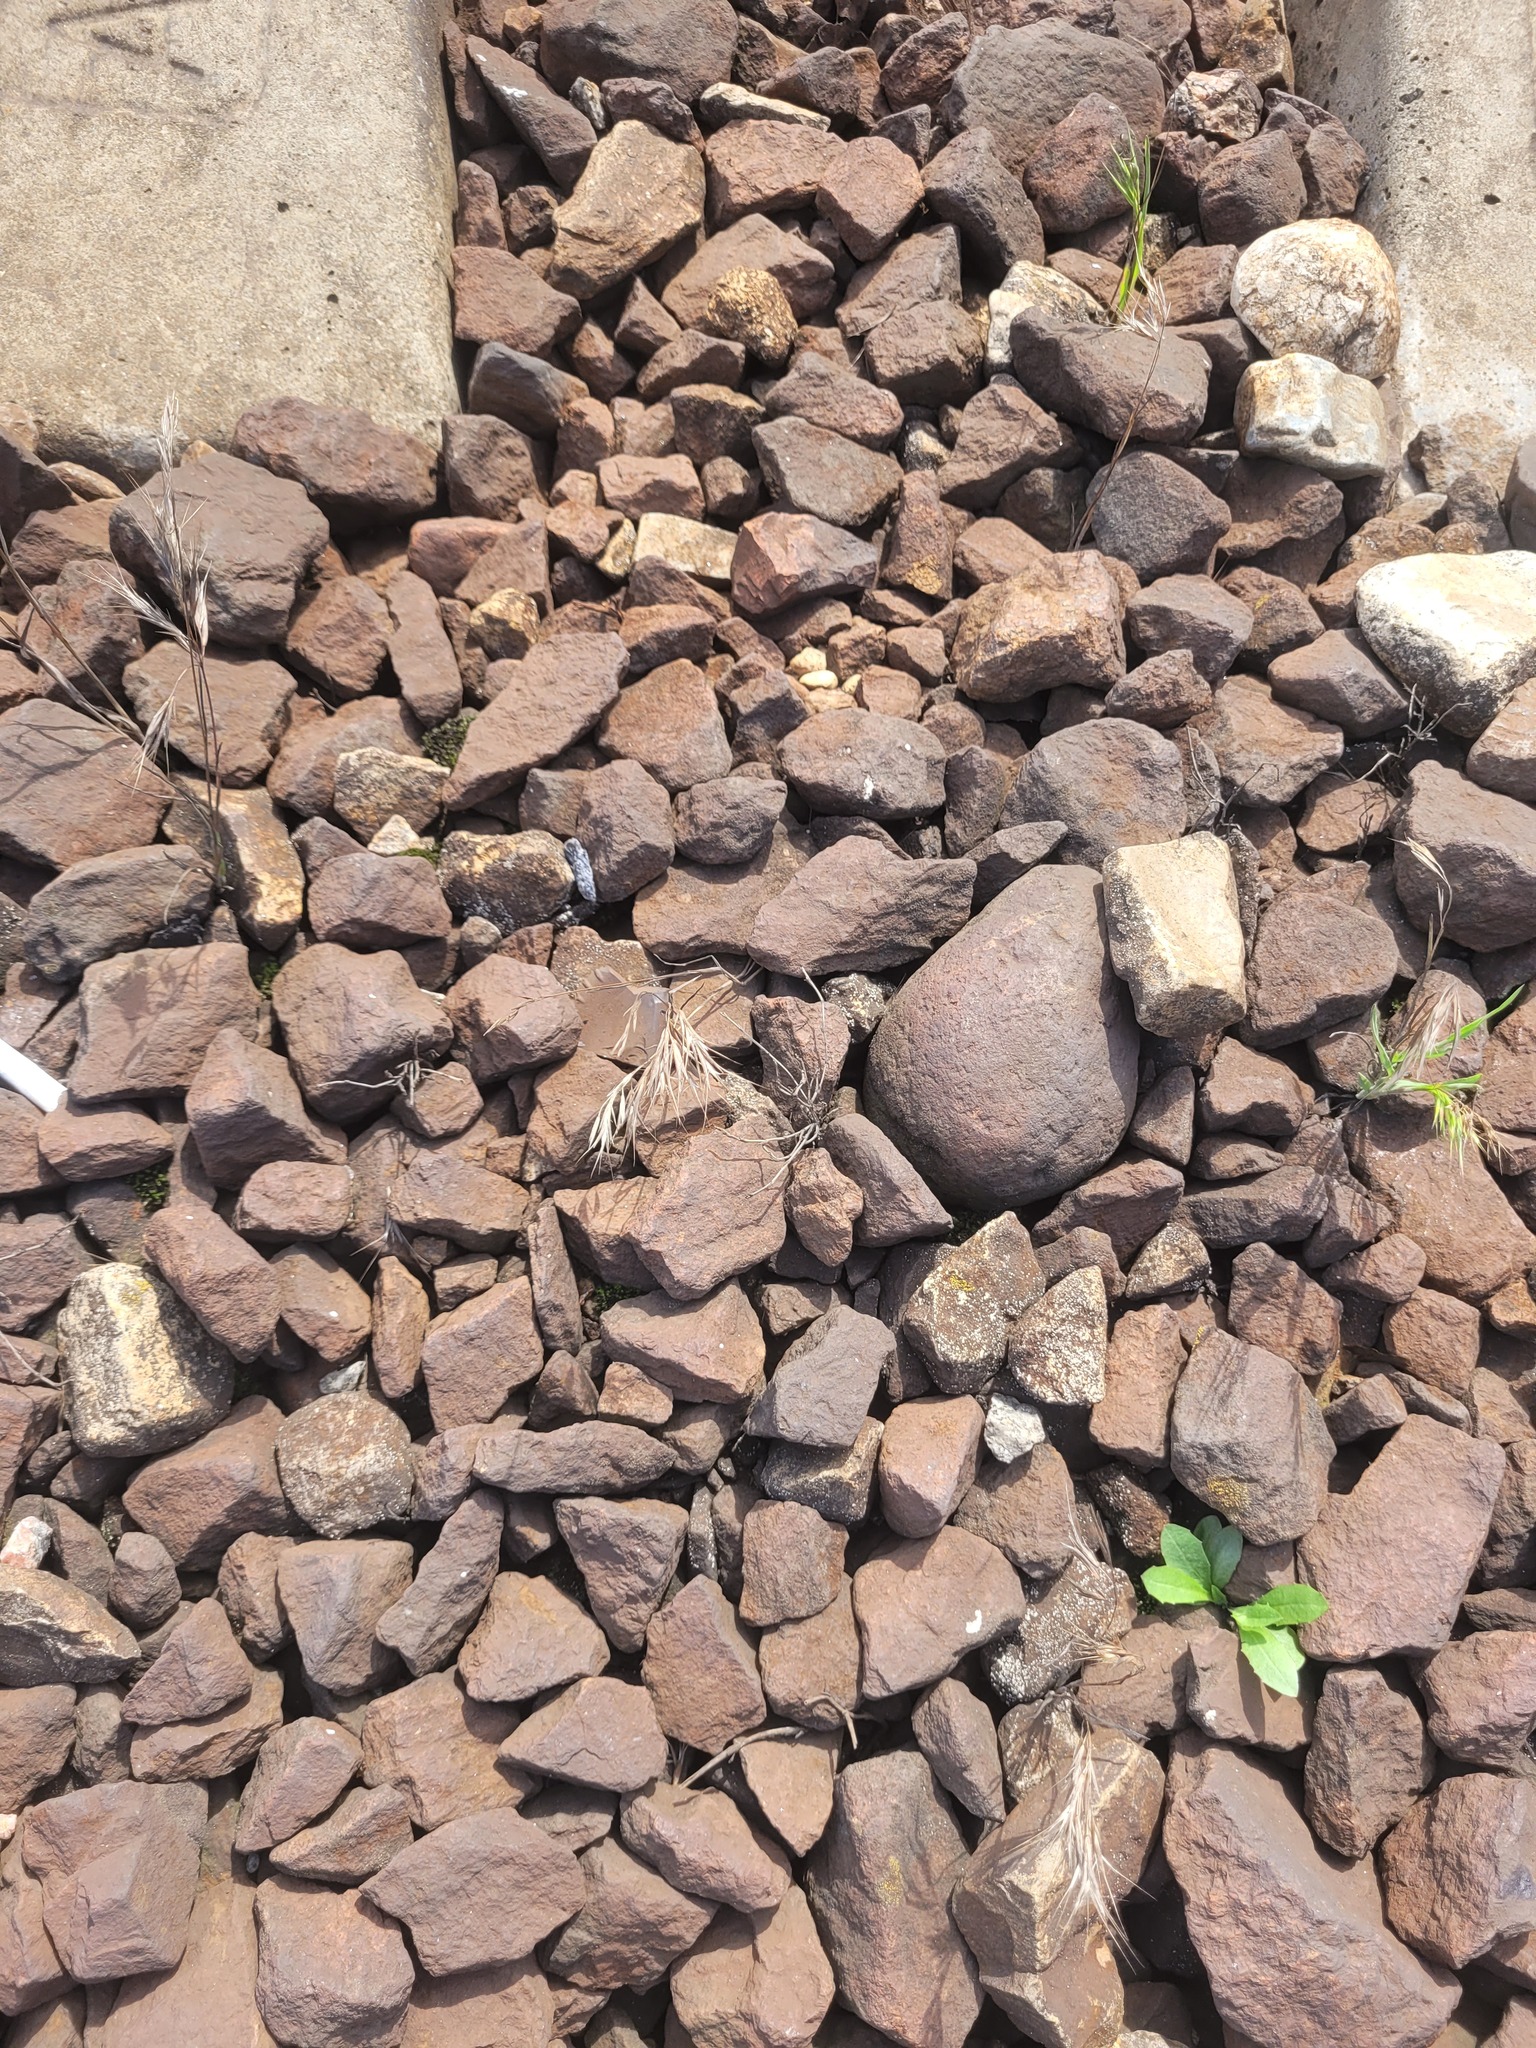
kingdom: Plantae
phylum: Tracheophyta
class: Liliopsida
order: Poales
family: Poaceae
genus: Bromus
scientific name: Bromus tectorum
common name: Cheatgrass
